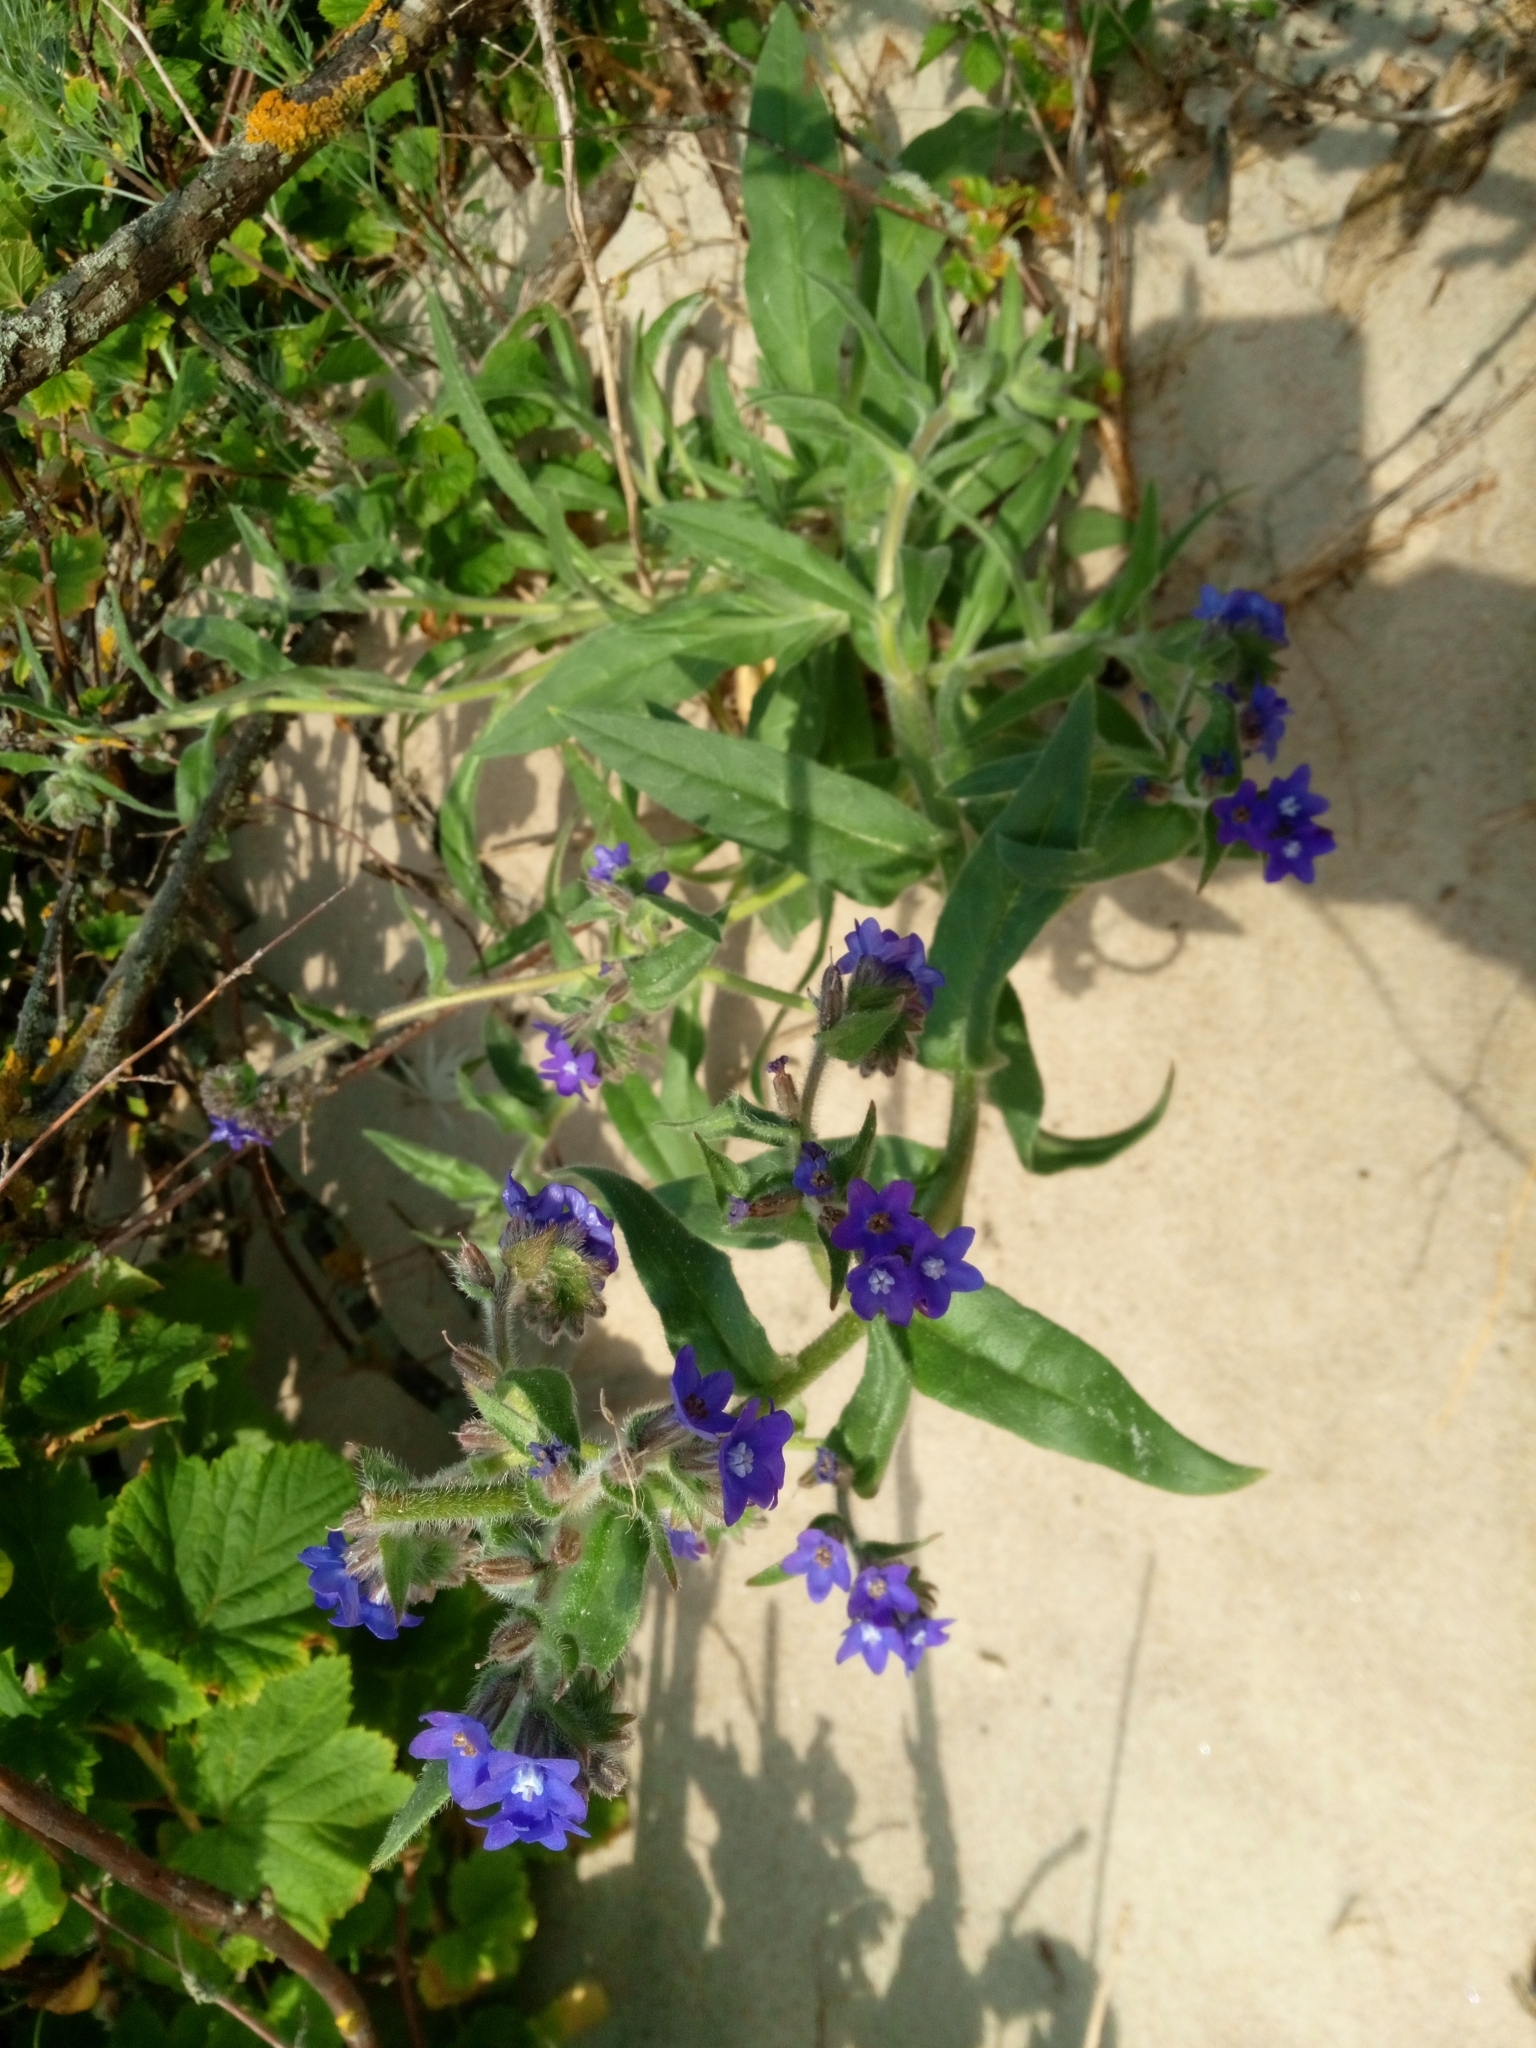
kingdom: Plantae
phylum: Tracheophyta
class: Magnoliopsida
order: Boraginales
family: Boraginaceae
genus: Anchusa
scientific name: Anchusa officinalis
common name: Alkanet
